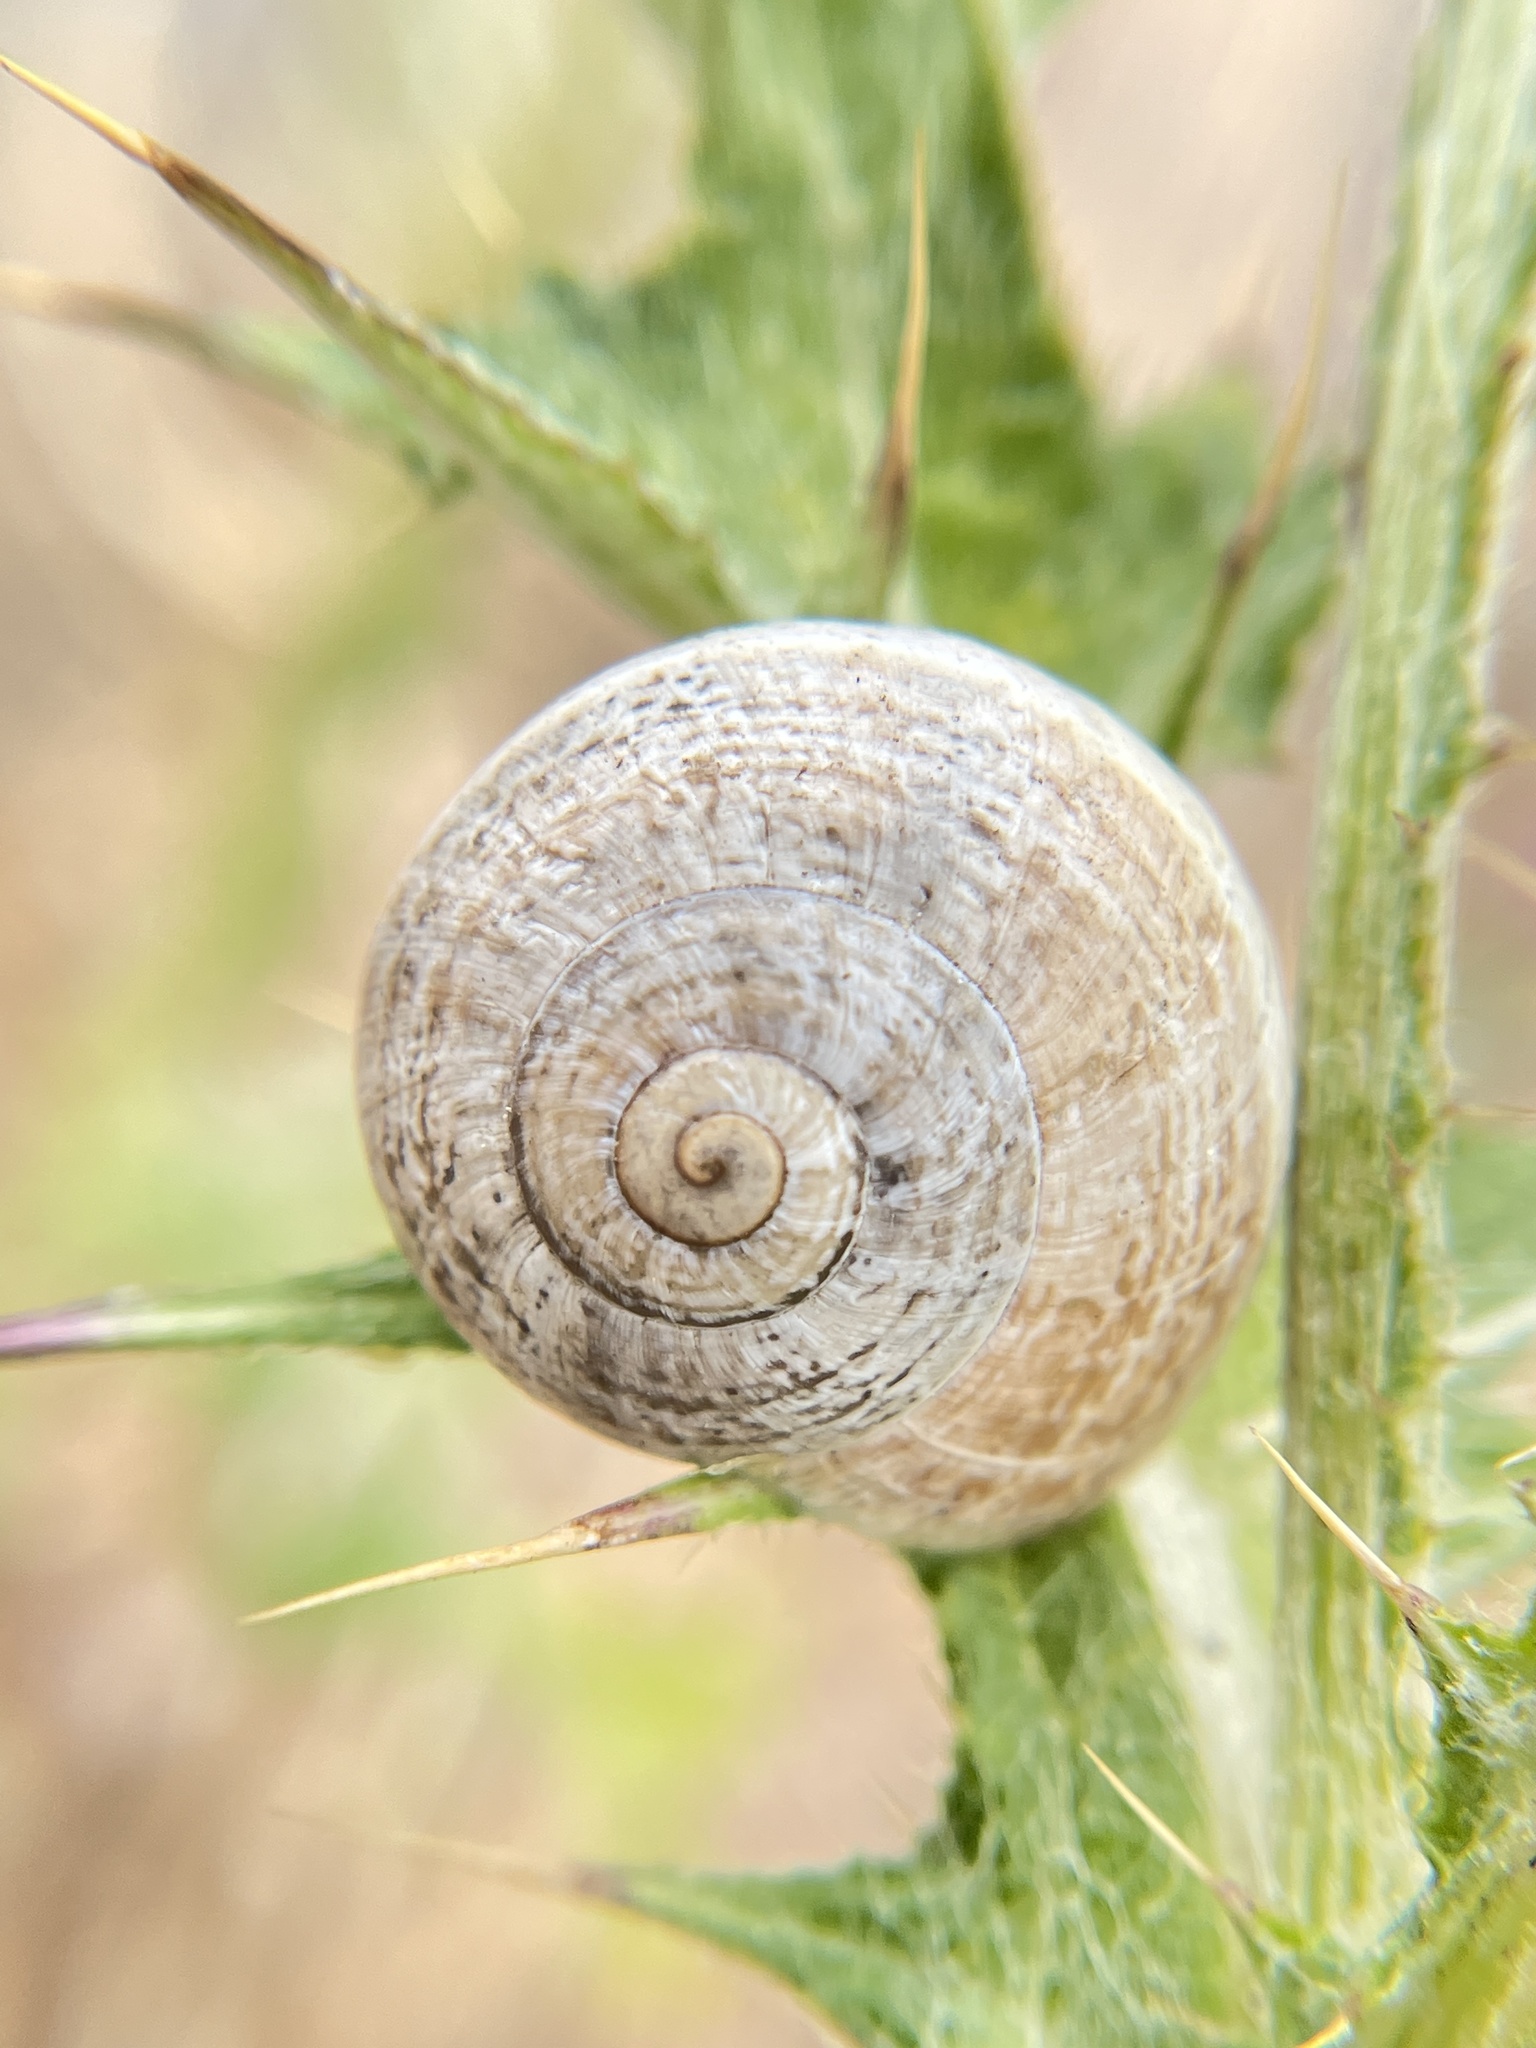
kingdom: Animalia
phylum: Mollusca
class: Gastropoda
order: Stylommatophora
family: Helicidae
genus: Otala
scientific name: Otala lactea
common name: Milk snail
